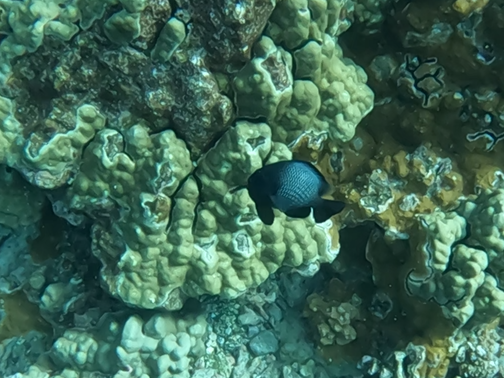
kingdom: Animalia
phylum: Chordata
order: Perciformes
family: Pomacentridae
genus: Dascyllus
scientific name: Dascyllus albisella
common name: Hawaiian dascyllus
